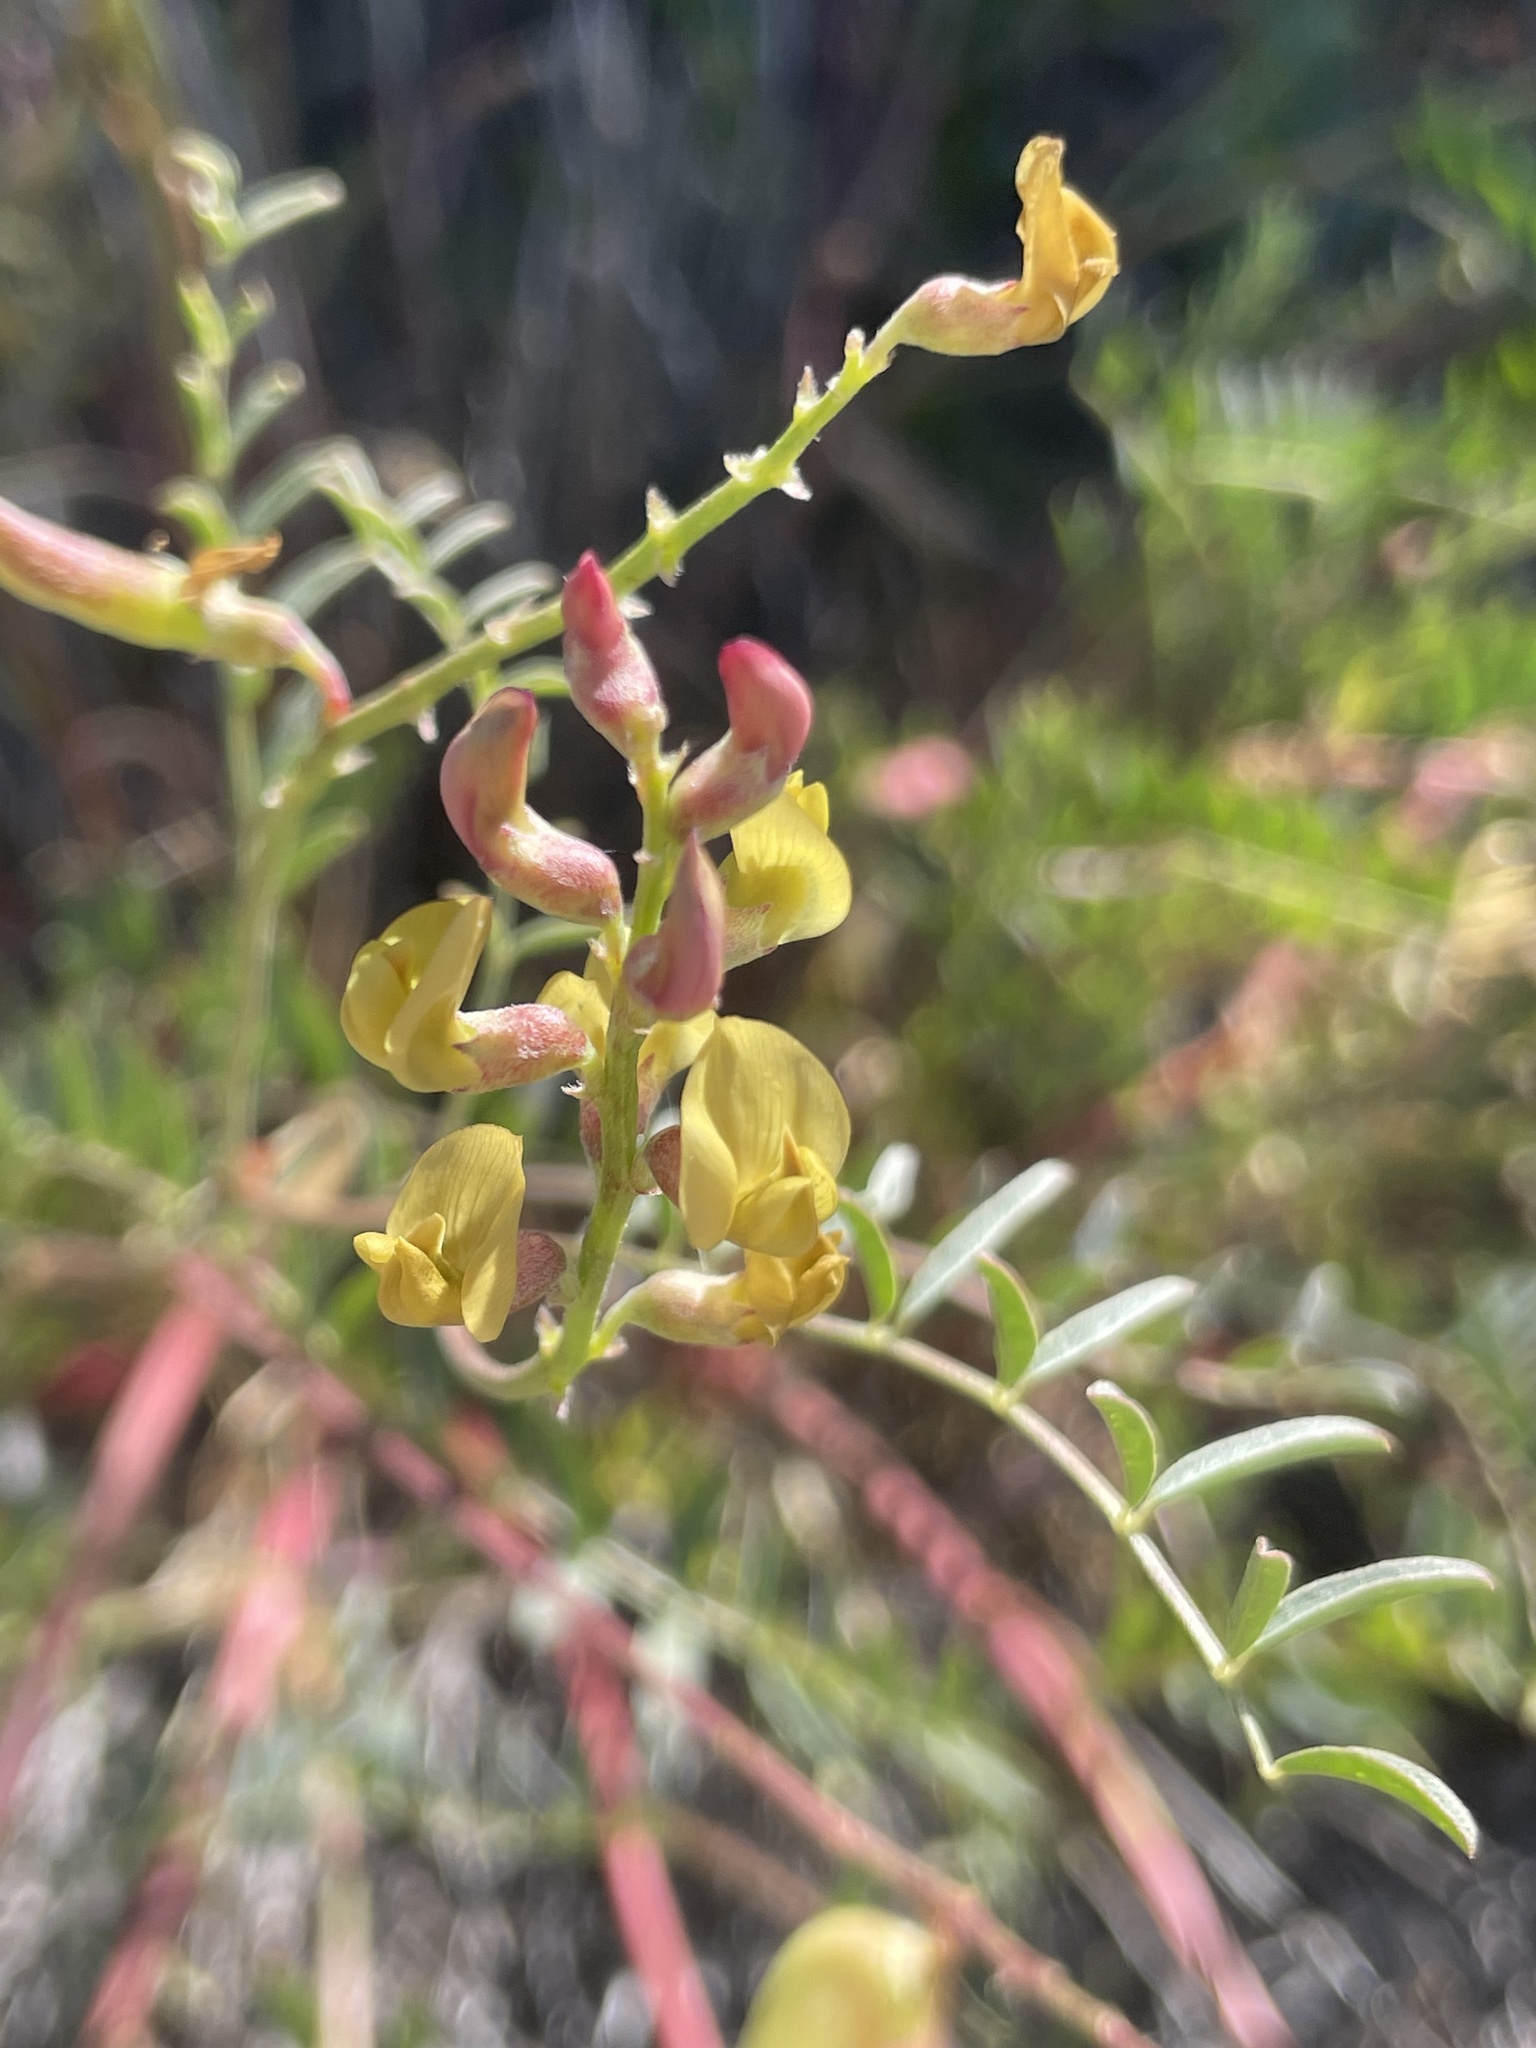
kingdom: Plantae
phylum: Tracheophyta
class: Magnoliopsida
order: Fabales
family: Fabaceae
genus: Astragalus
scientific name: Astragalus douglasii
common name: Jacumba milkvetch
